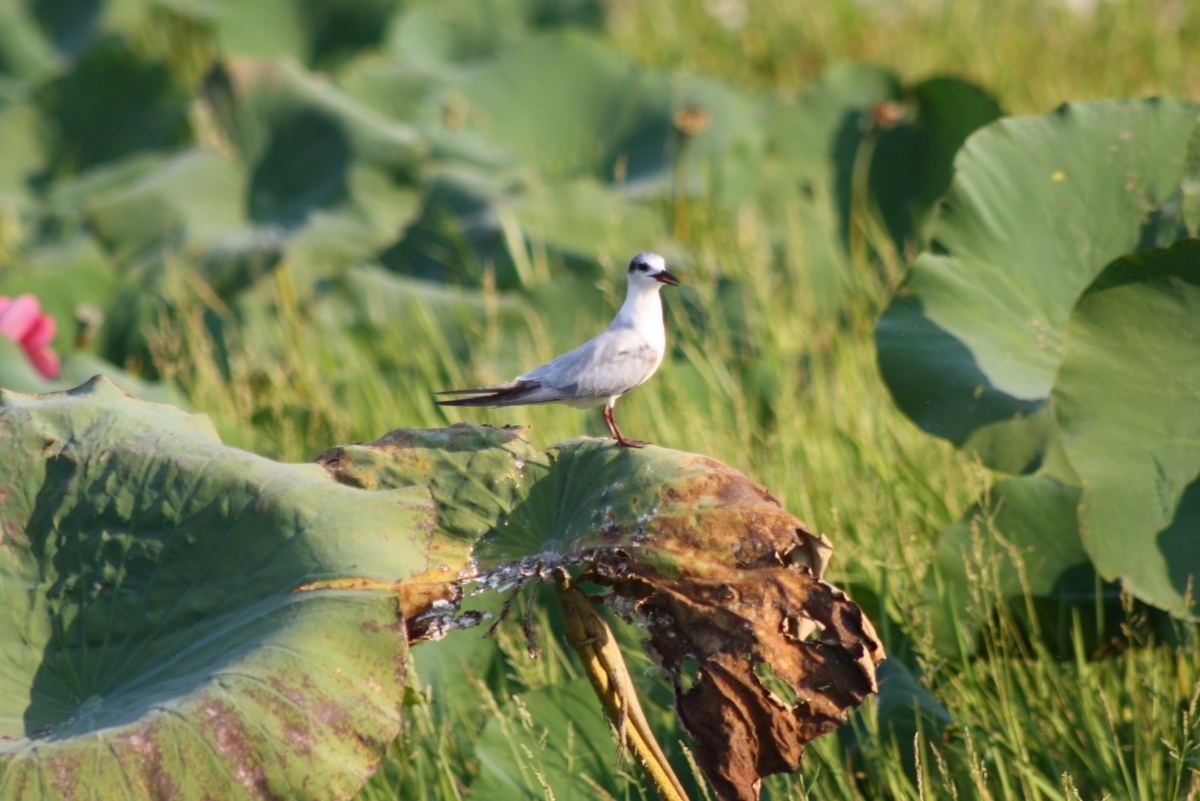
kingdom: Animalia
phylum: Chordata
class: Aves
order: Charadriiformes
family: Laridae
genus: Chlidonias
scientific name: Chlidonias hybrida
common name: Whiskered tern
